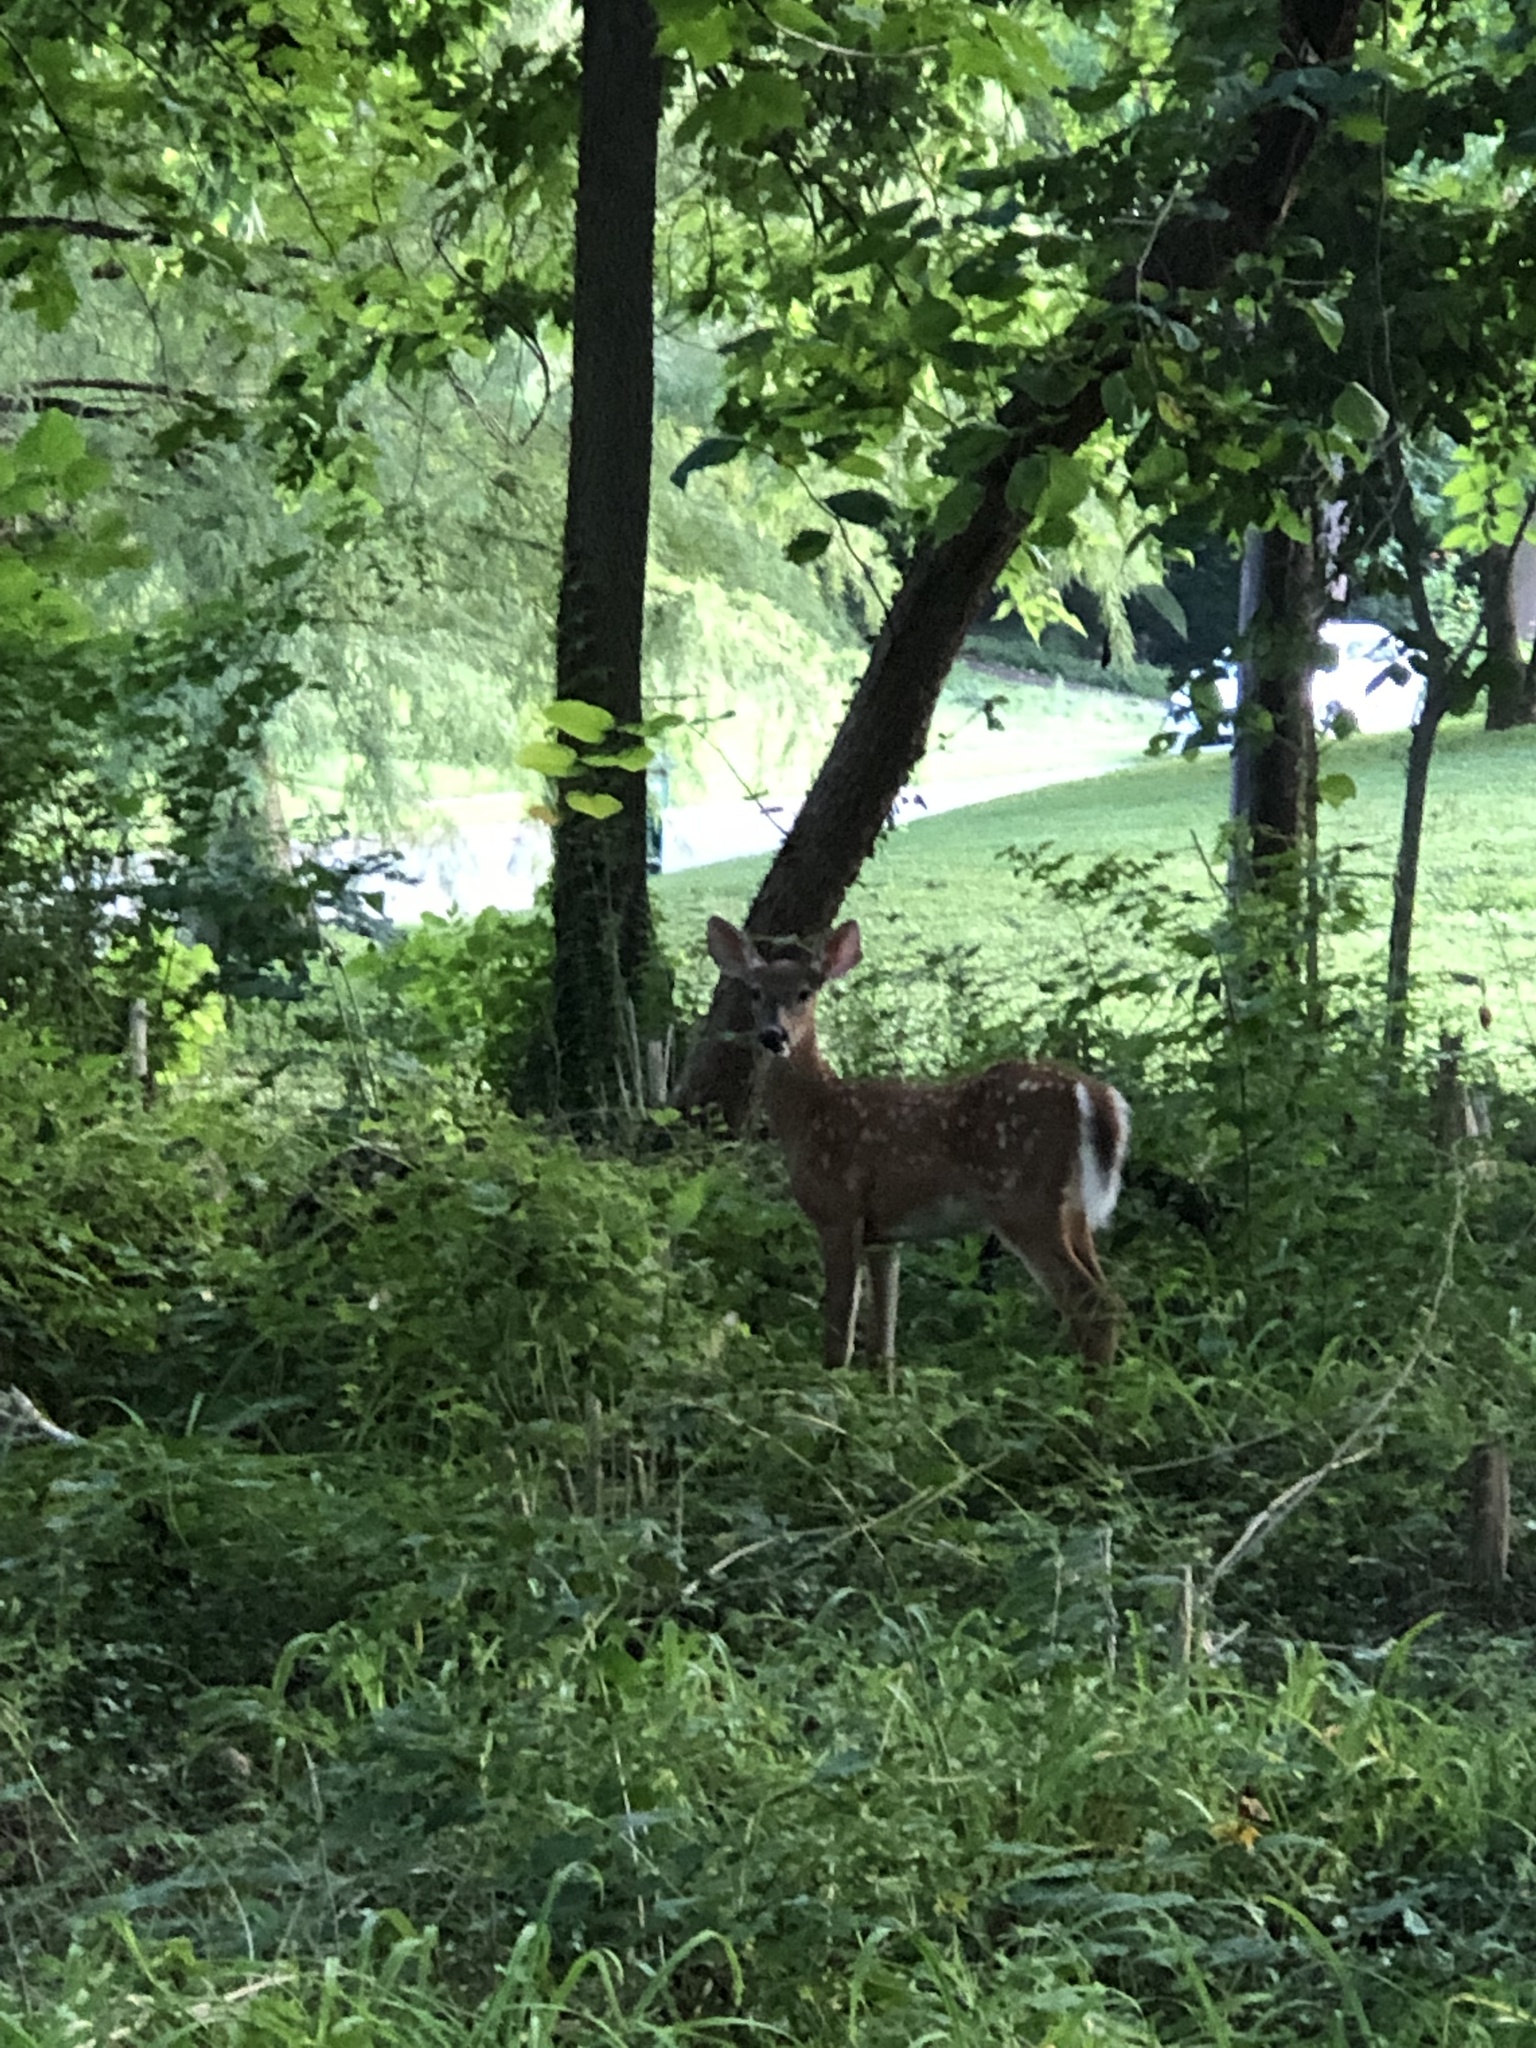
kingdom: Animalia
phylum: Chordata
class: Mammalia
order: Artiodactyla
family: Cervidae
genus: Odocoileus
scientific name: Odocoileus virginianus
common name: White-tailed deer
